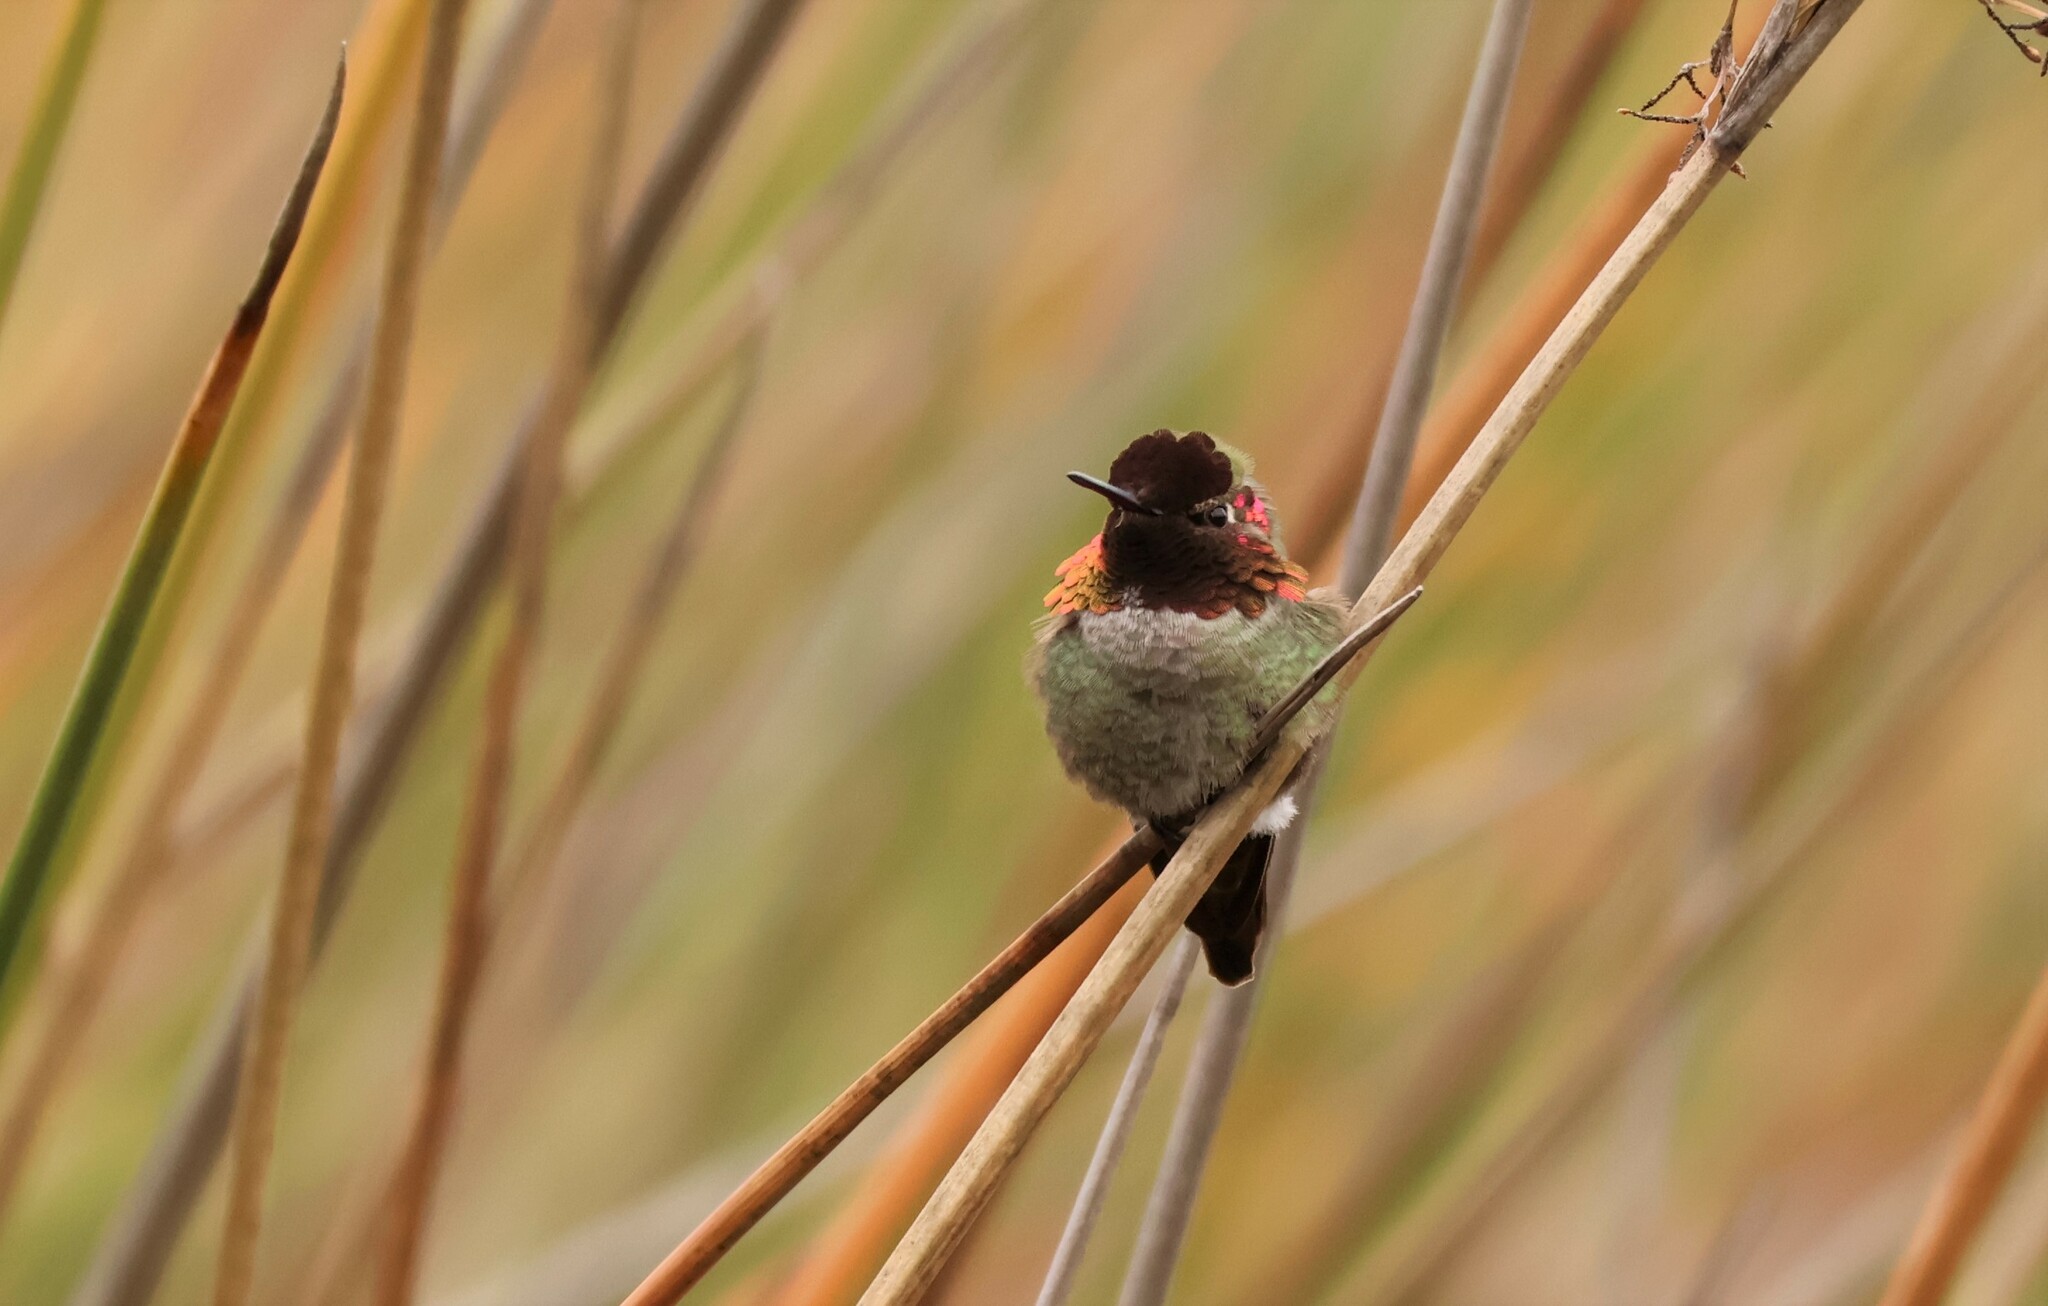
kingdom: Animalia
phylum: Chordata
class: Aves
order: Apodiformes
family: Trochilidae
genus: Calypte
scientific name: Calypte anna
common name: Anna's hummingbird
